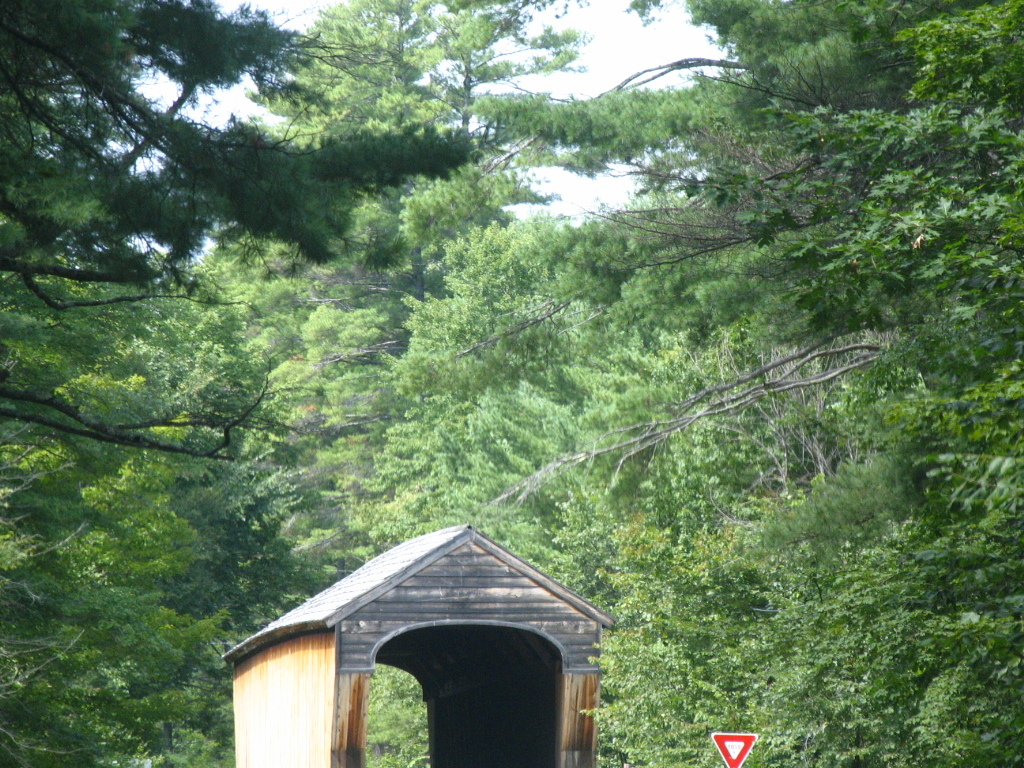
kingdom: Plantae
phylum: Tracheophyta
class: Pinopsida
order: Pinales
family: Pinaceae
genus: Pinus
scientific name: Pinus strobus
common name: Weymouth pine
